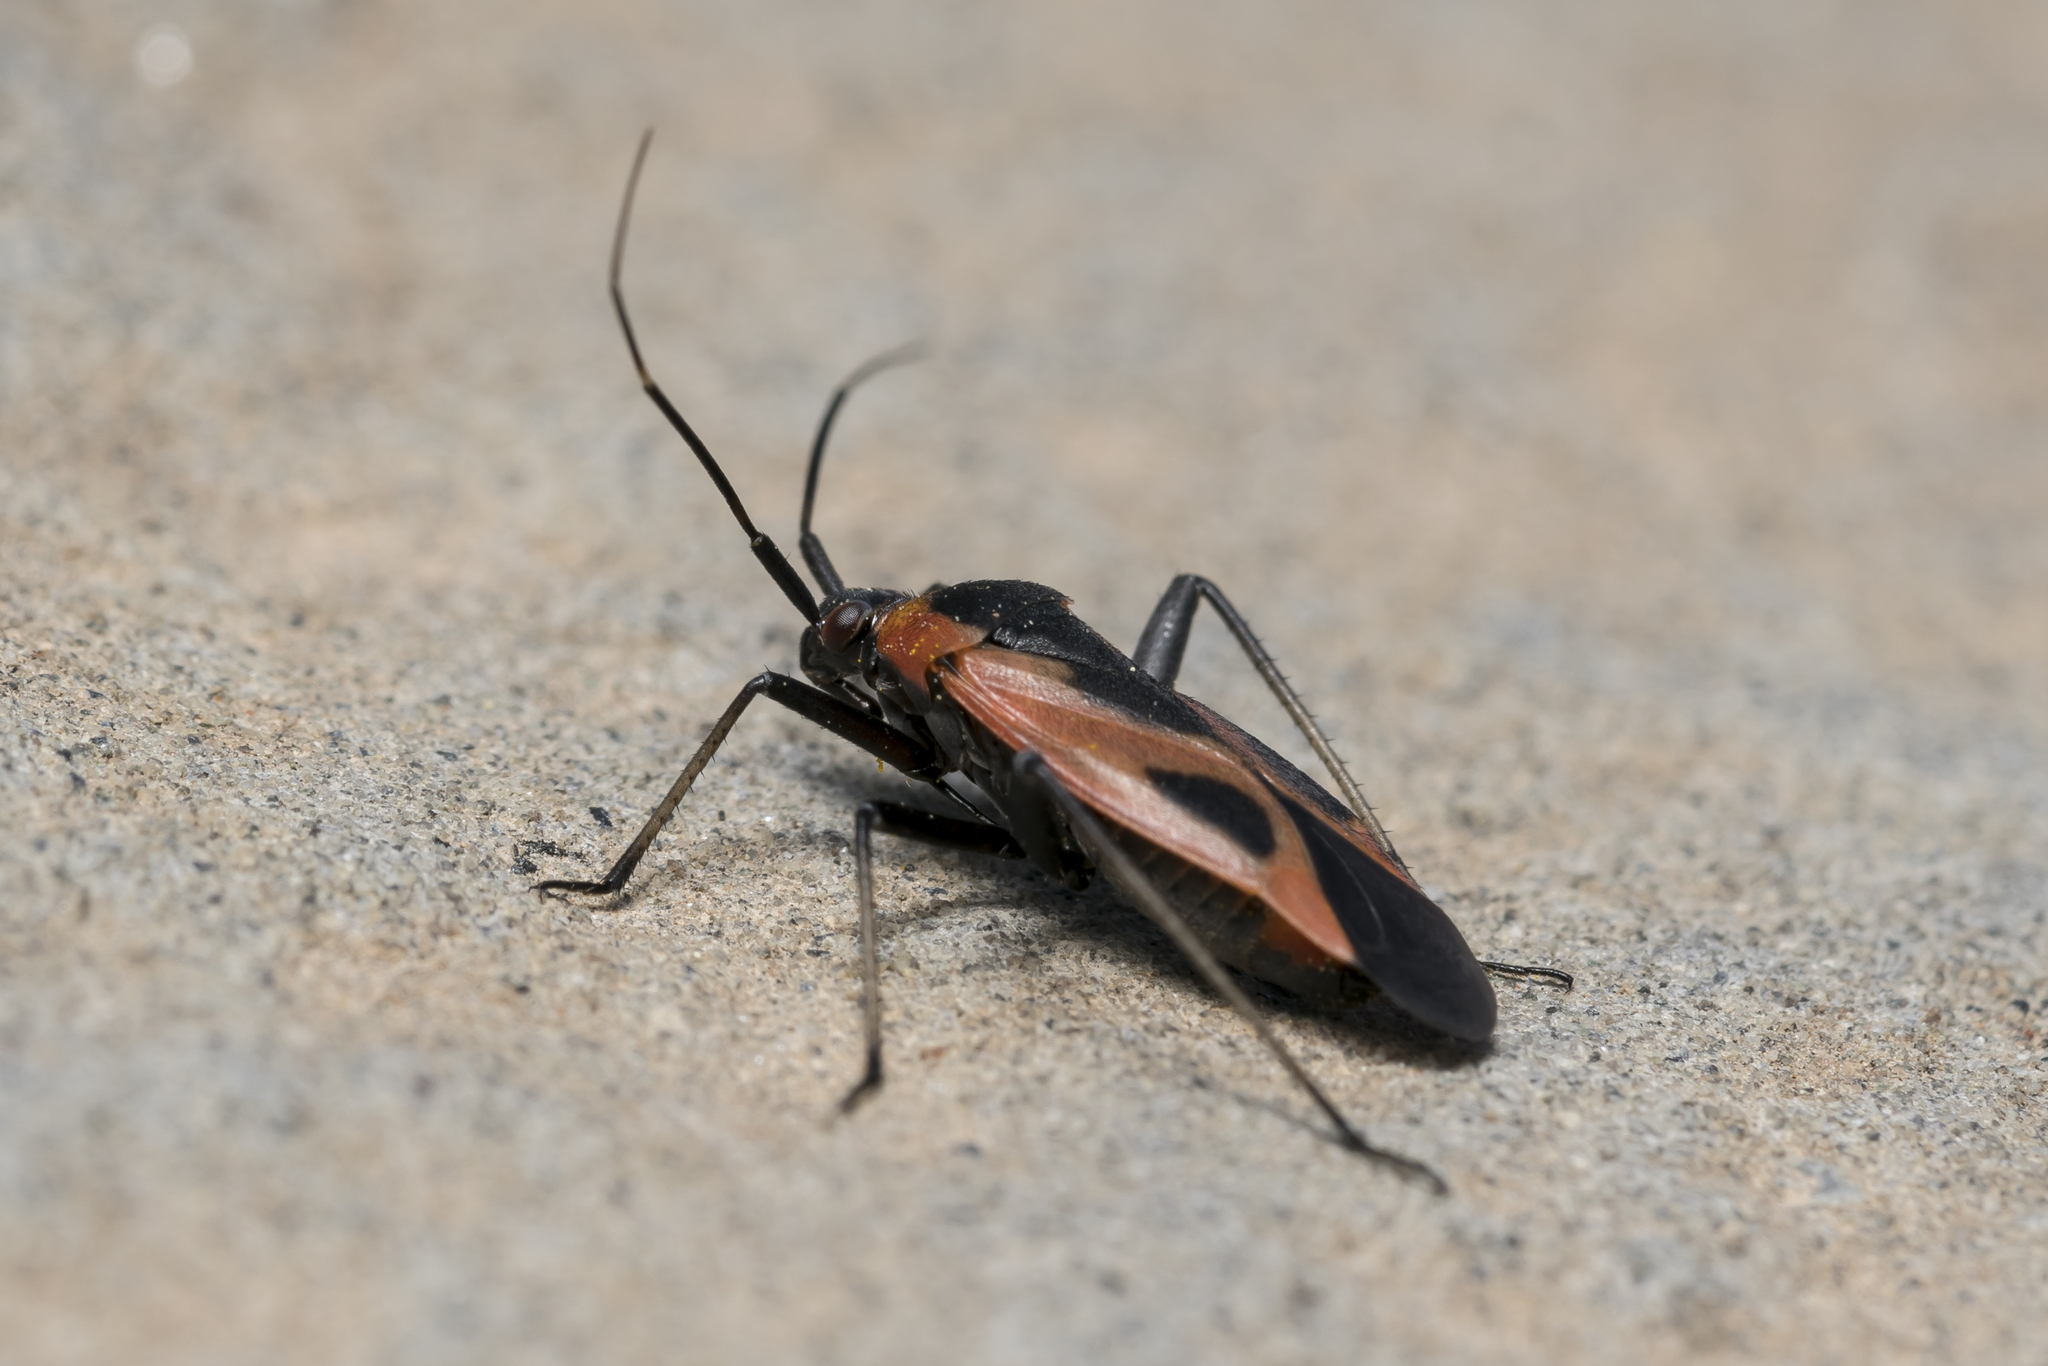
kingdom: Animalia
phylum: Arthropoda
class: Insecta
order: Hemiptera
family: Miridae
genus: Calocoris
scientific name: Calocoris nemoralis
